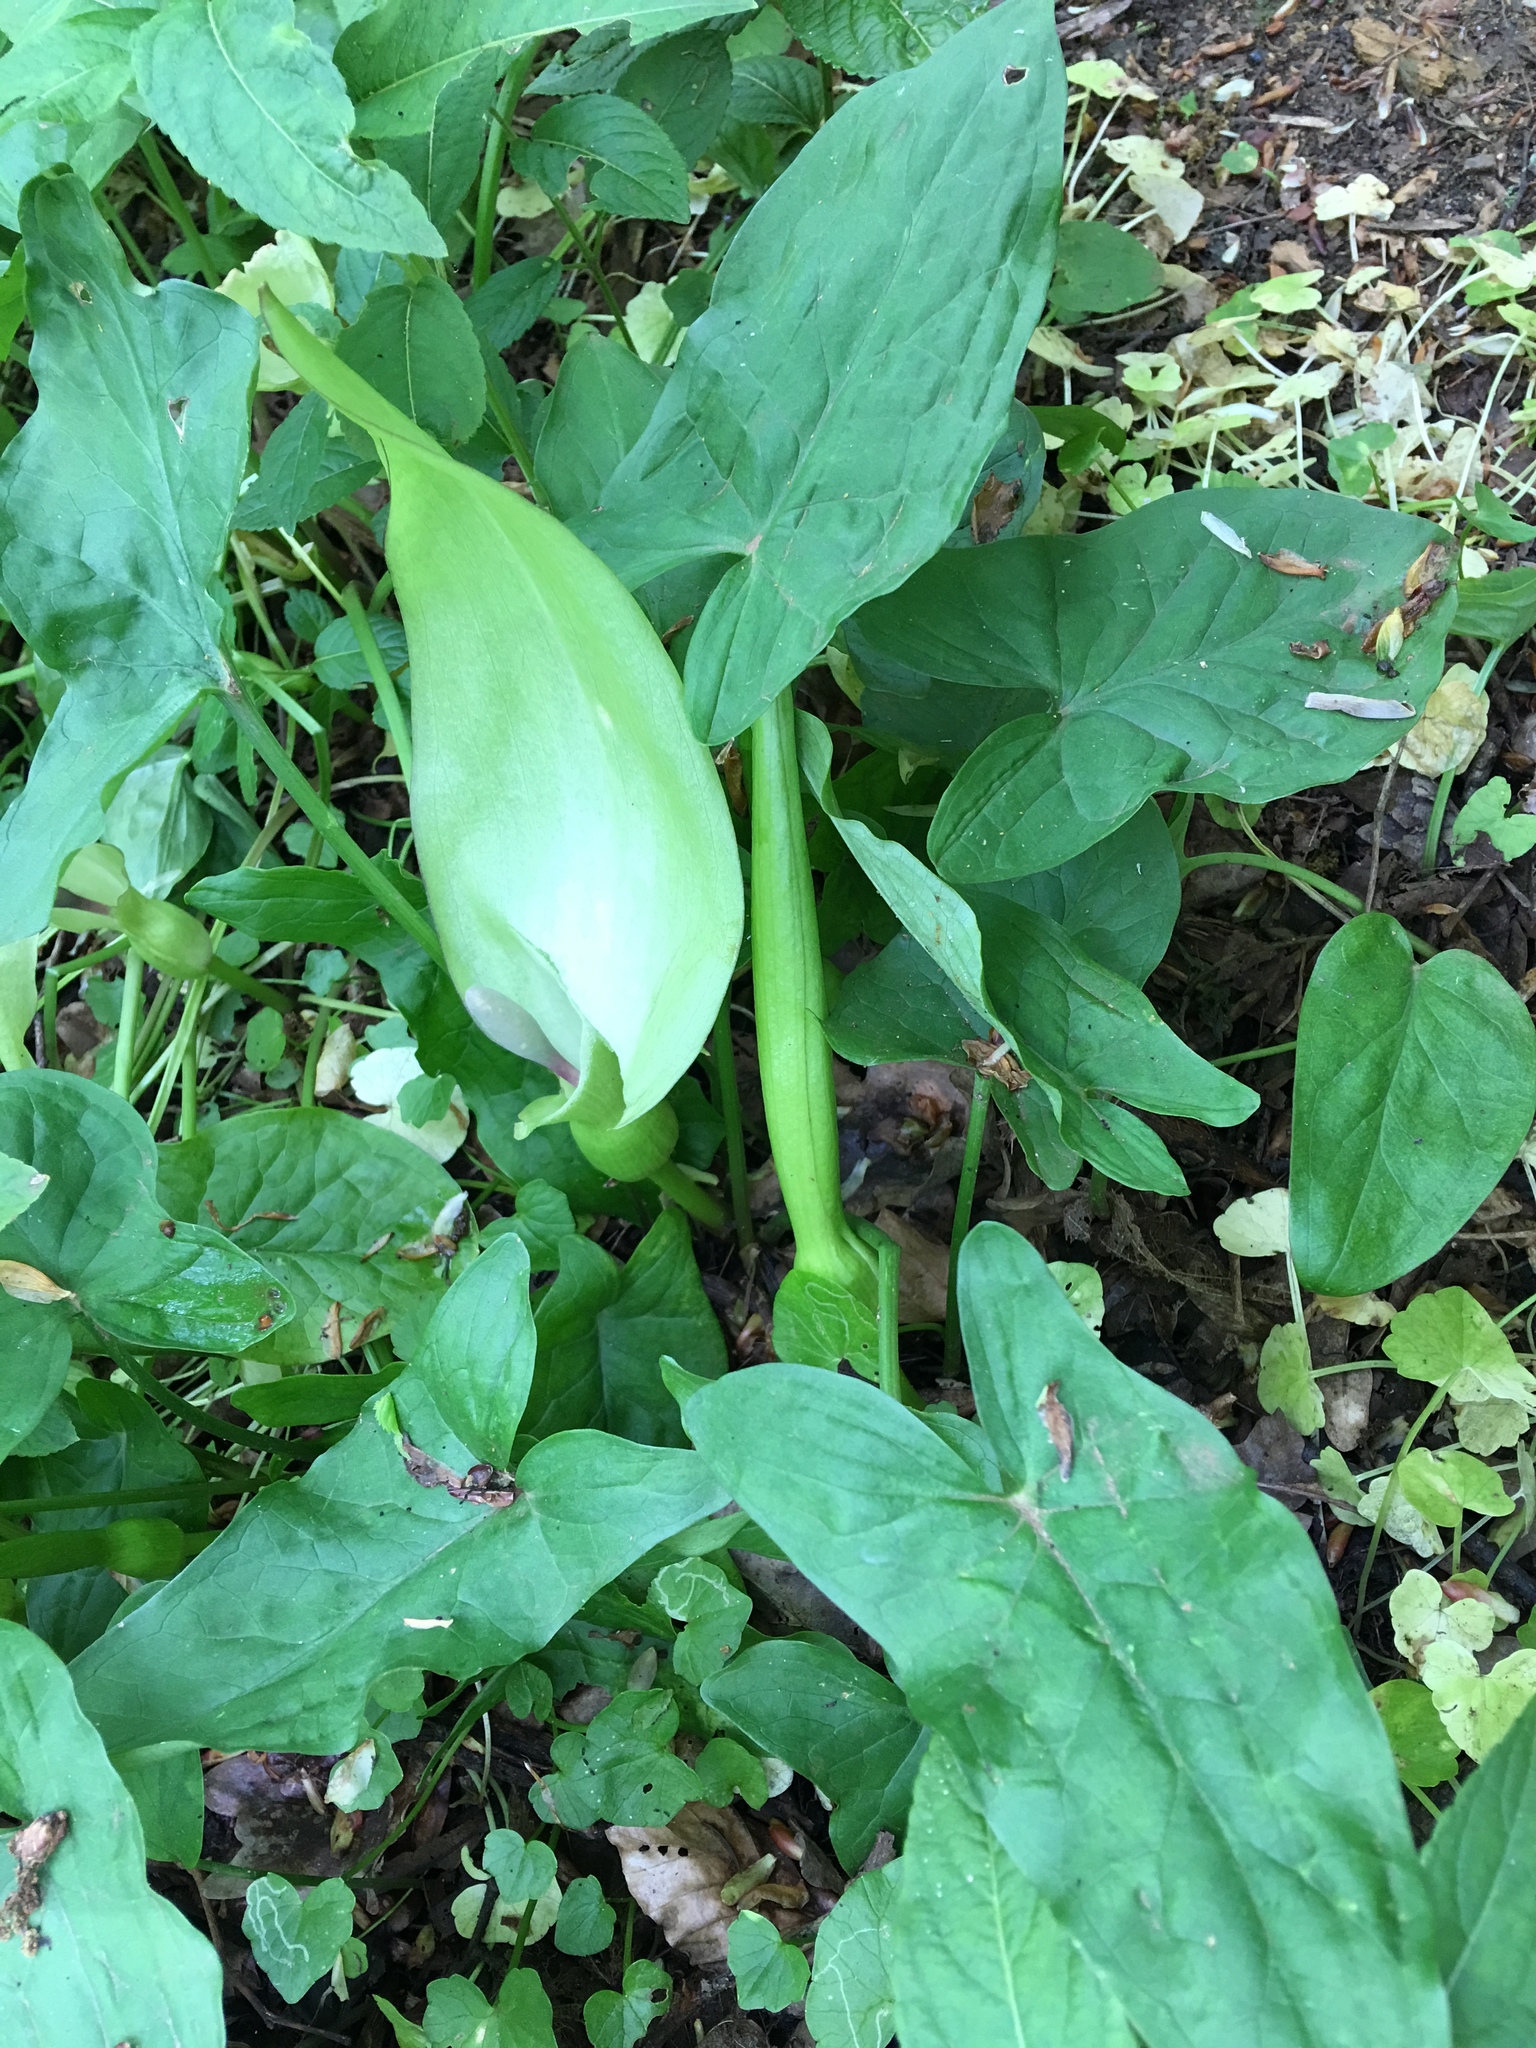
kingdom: Plantae
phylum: Tracheophyta
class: Liliopsida
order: Alismatales
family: Araceae
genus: Arum
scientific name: Arum maculatum
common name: Lords-and-ladies
